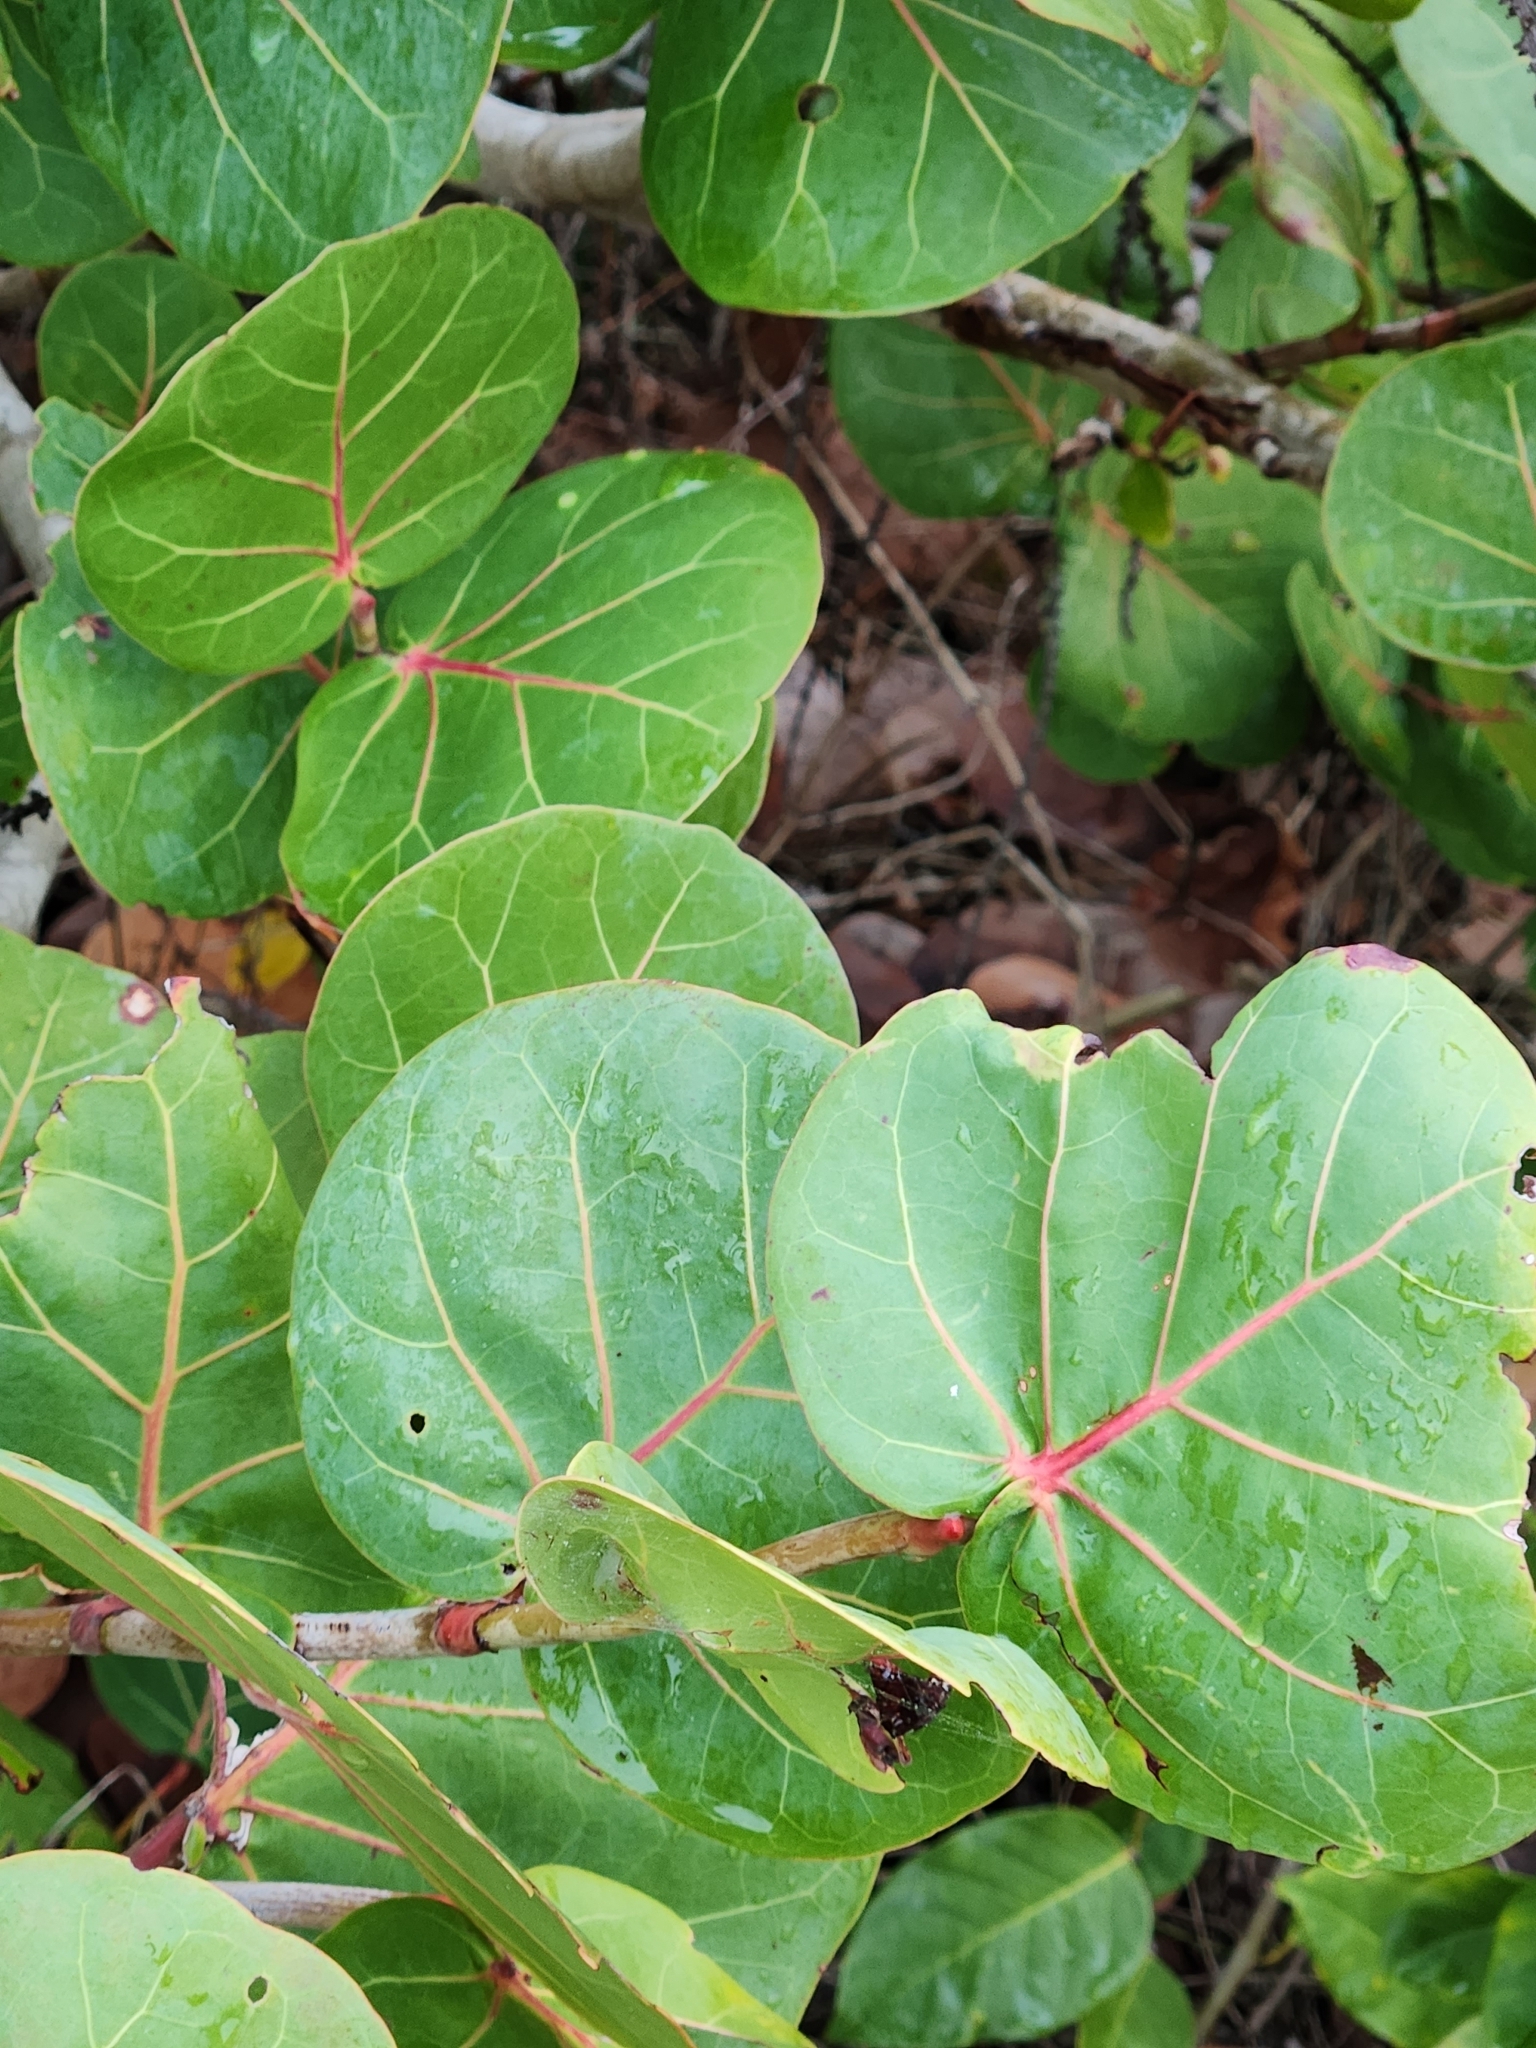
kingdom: Plantae
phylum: Tracheophyta
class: Magnoliopsida
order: Caryophyllales
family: Polygonaceae
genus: Coccoloba
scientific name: Coccoloba uvifera
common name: Seagrape
